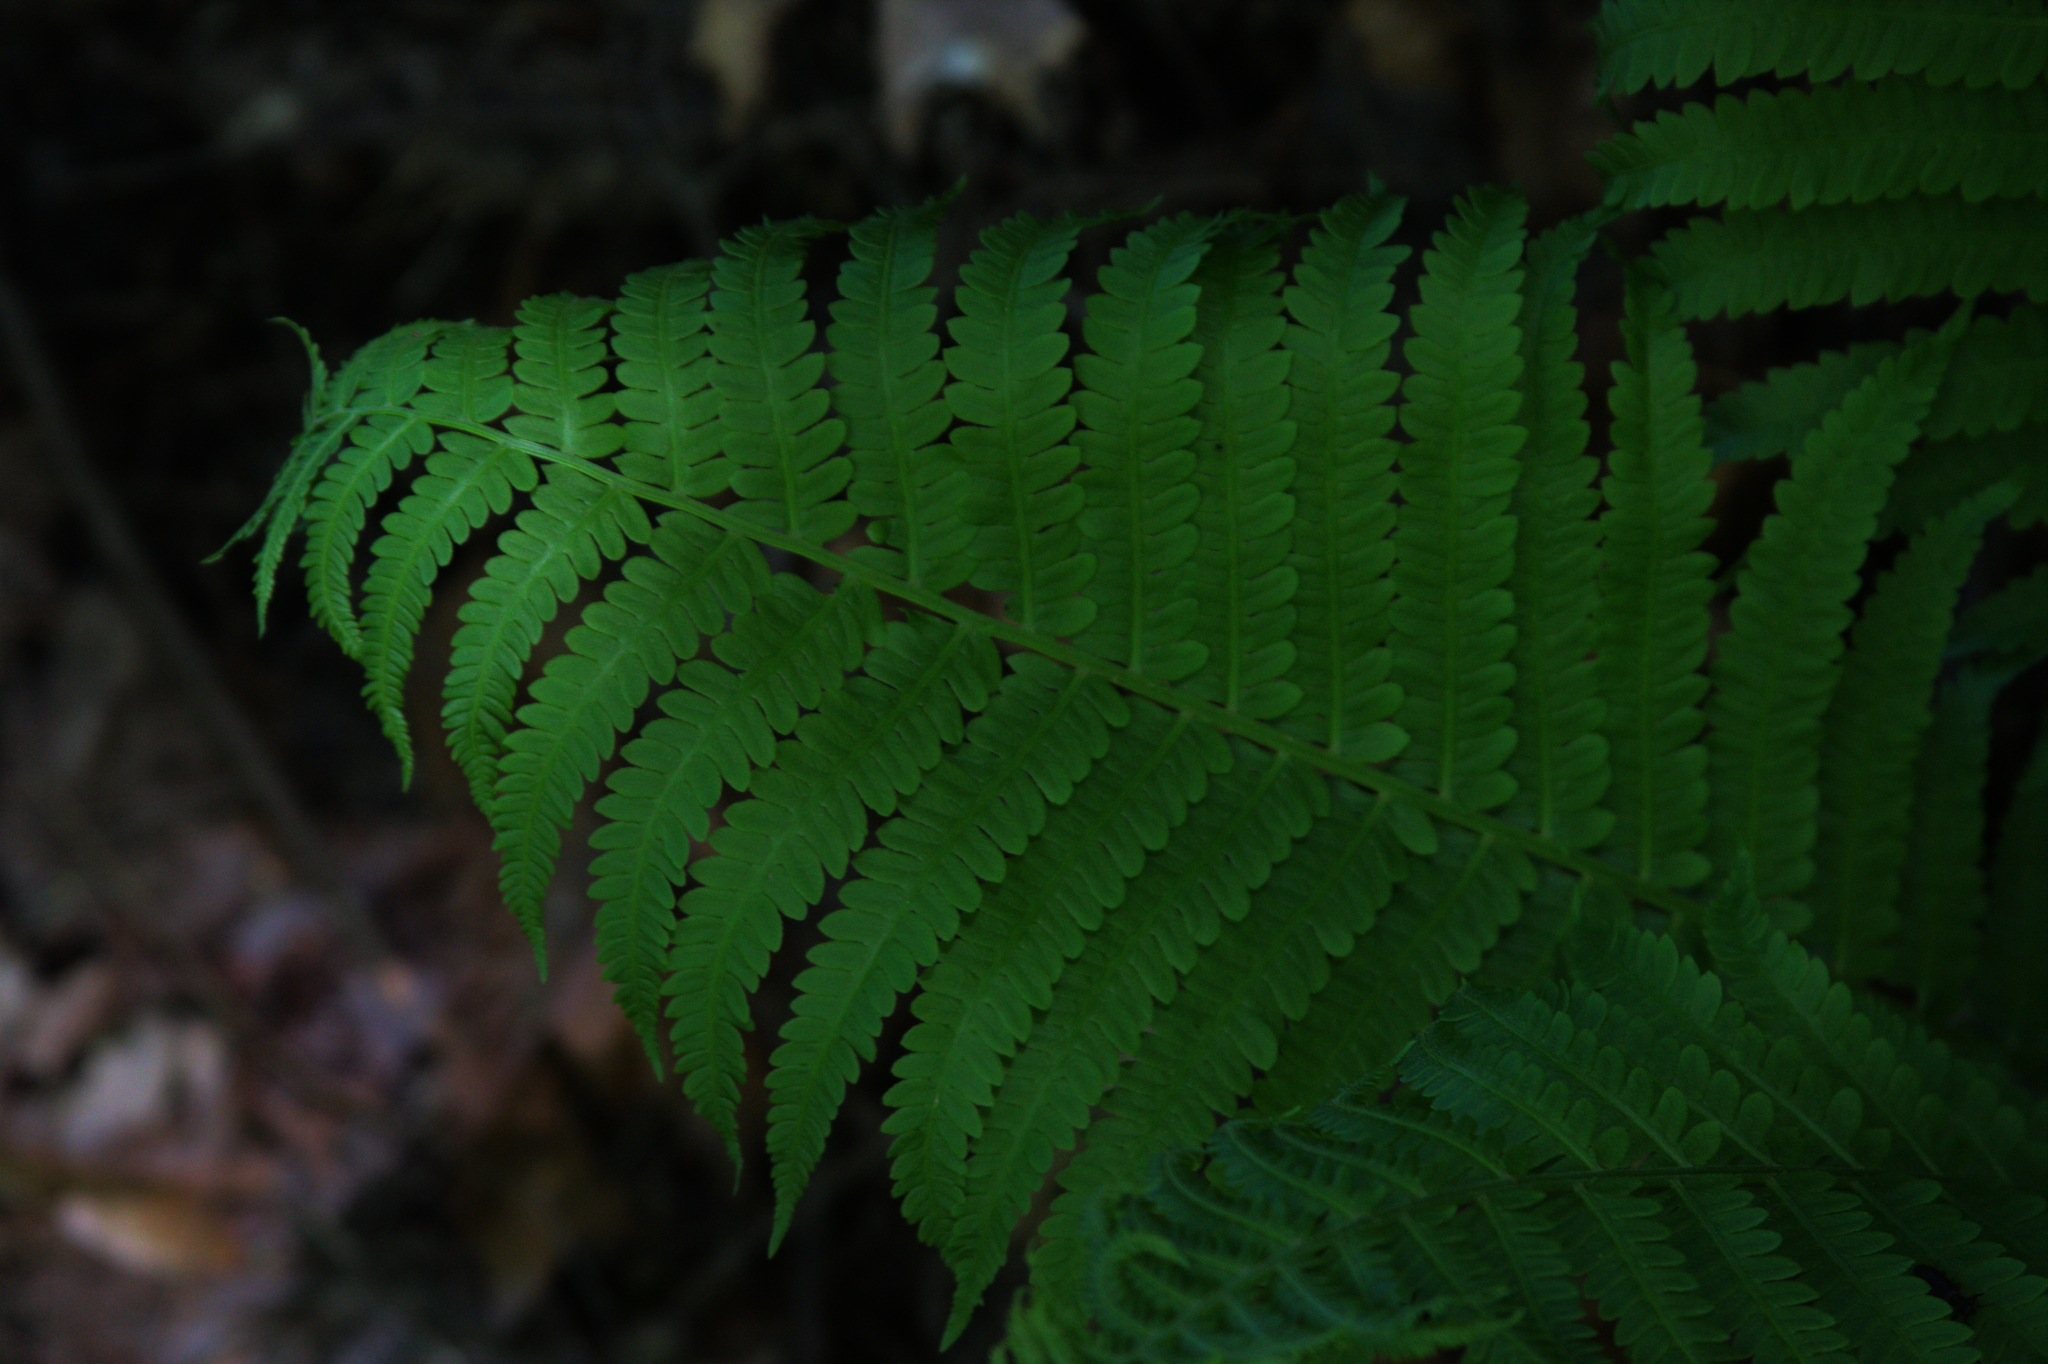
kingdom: Plantae
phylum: Tracheophyta
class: Polypodiopsida
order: Polypodiales
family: Onocleaceae
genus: Matteuccia
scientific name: Matteuccia struthiopteris
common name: Ostrich fern
